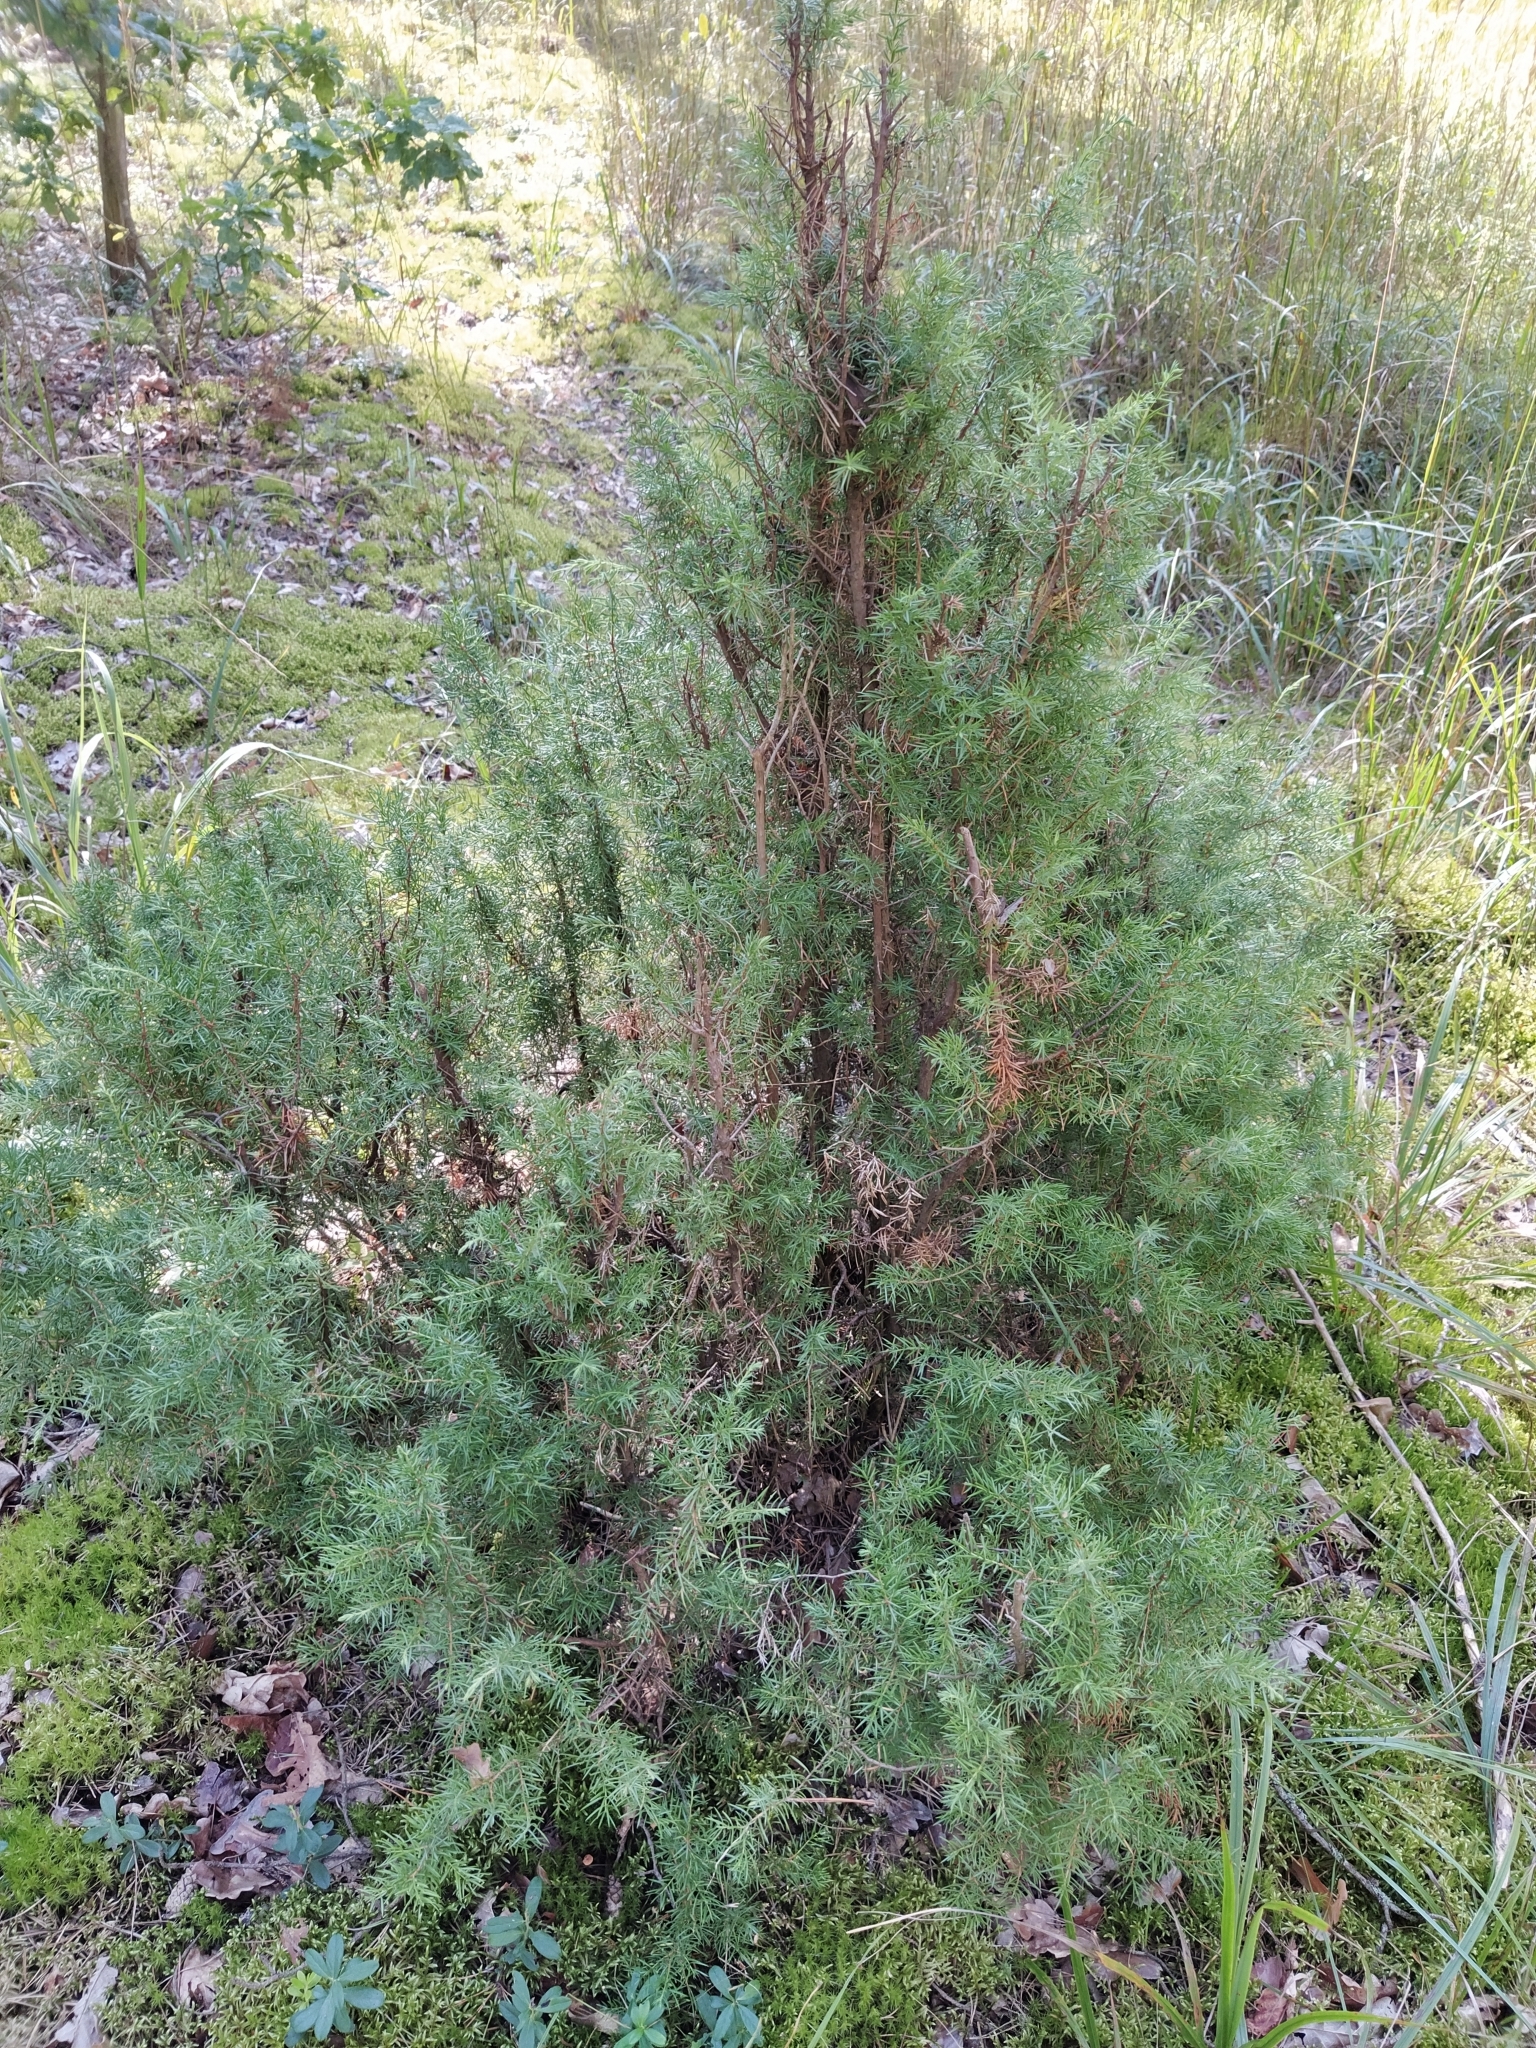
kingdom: Plantae
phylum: Tracheophyta
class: Pinopsida
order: Pinales
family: Cupressaceae
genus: Juniperus
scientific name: Juniperus communis
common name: Common juniper
